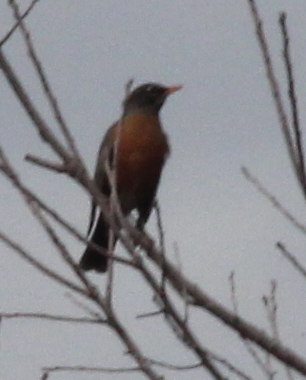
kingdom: Animalia
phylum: Chordata
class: Aves
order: Passeriformes
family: Turdidae
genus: Turdus
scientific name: Turdus migratorius
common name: American robin
